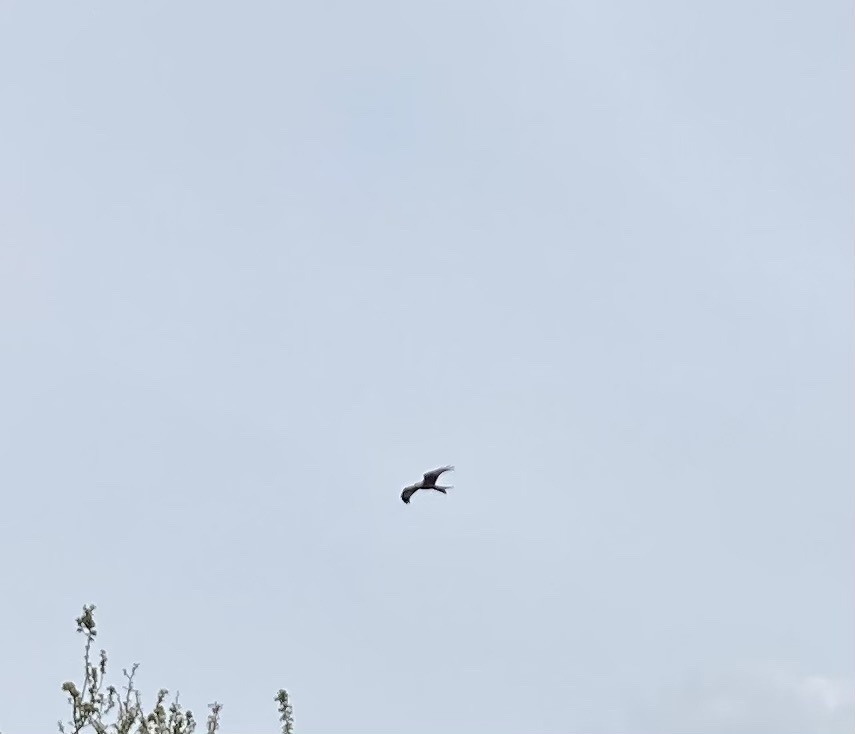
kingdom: Animalia
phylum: Chordata
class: Aves
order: Accipitriformes
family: Accipitridae
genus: Milvus
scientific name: Milvus milvus
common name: Red kite
